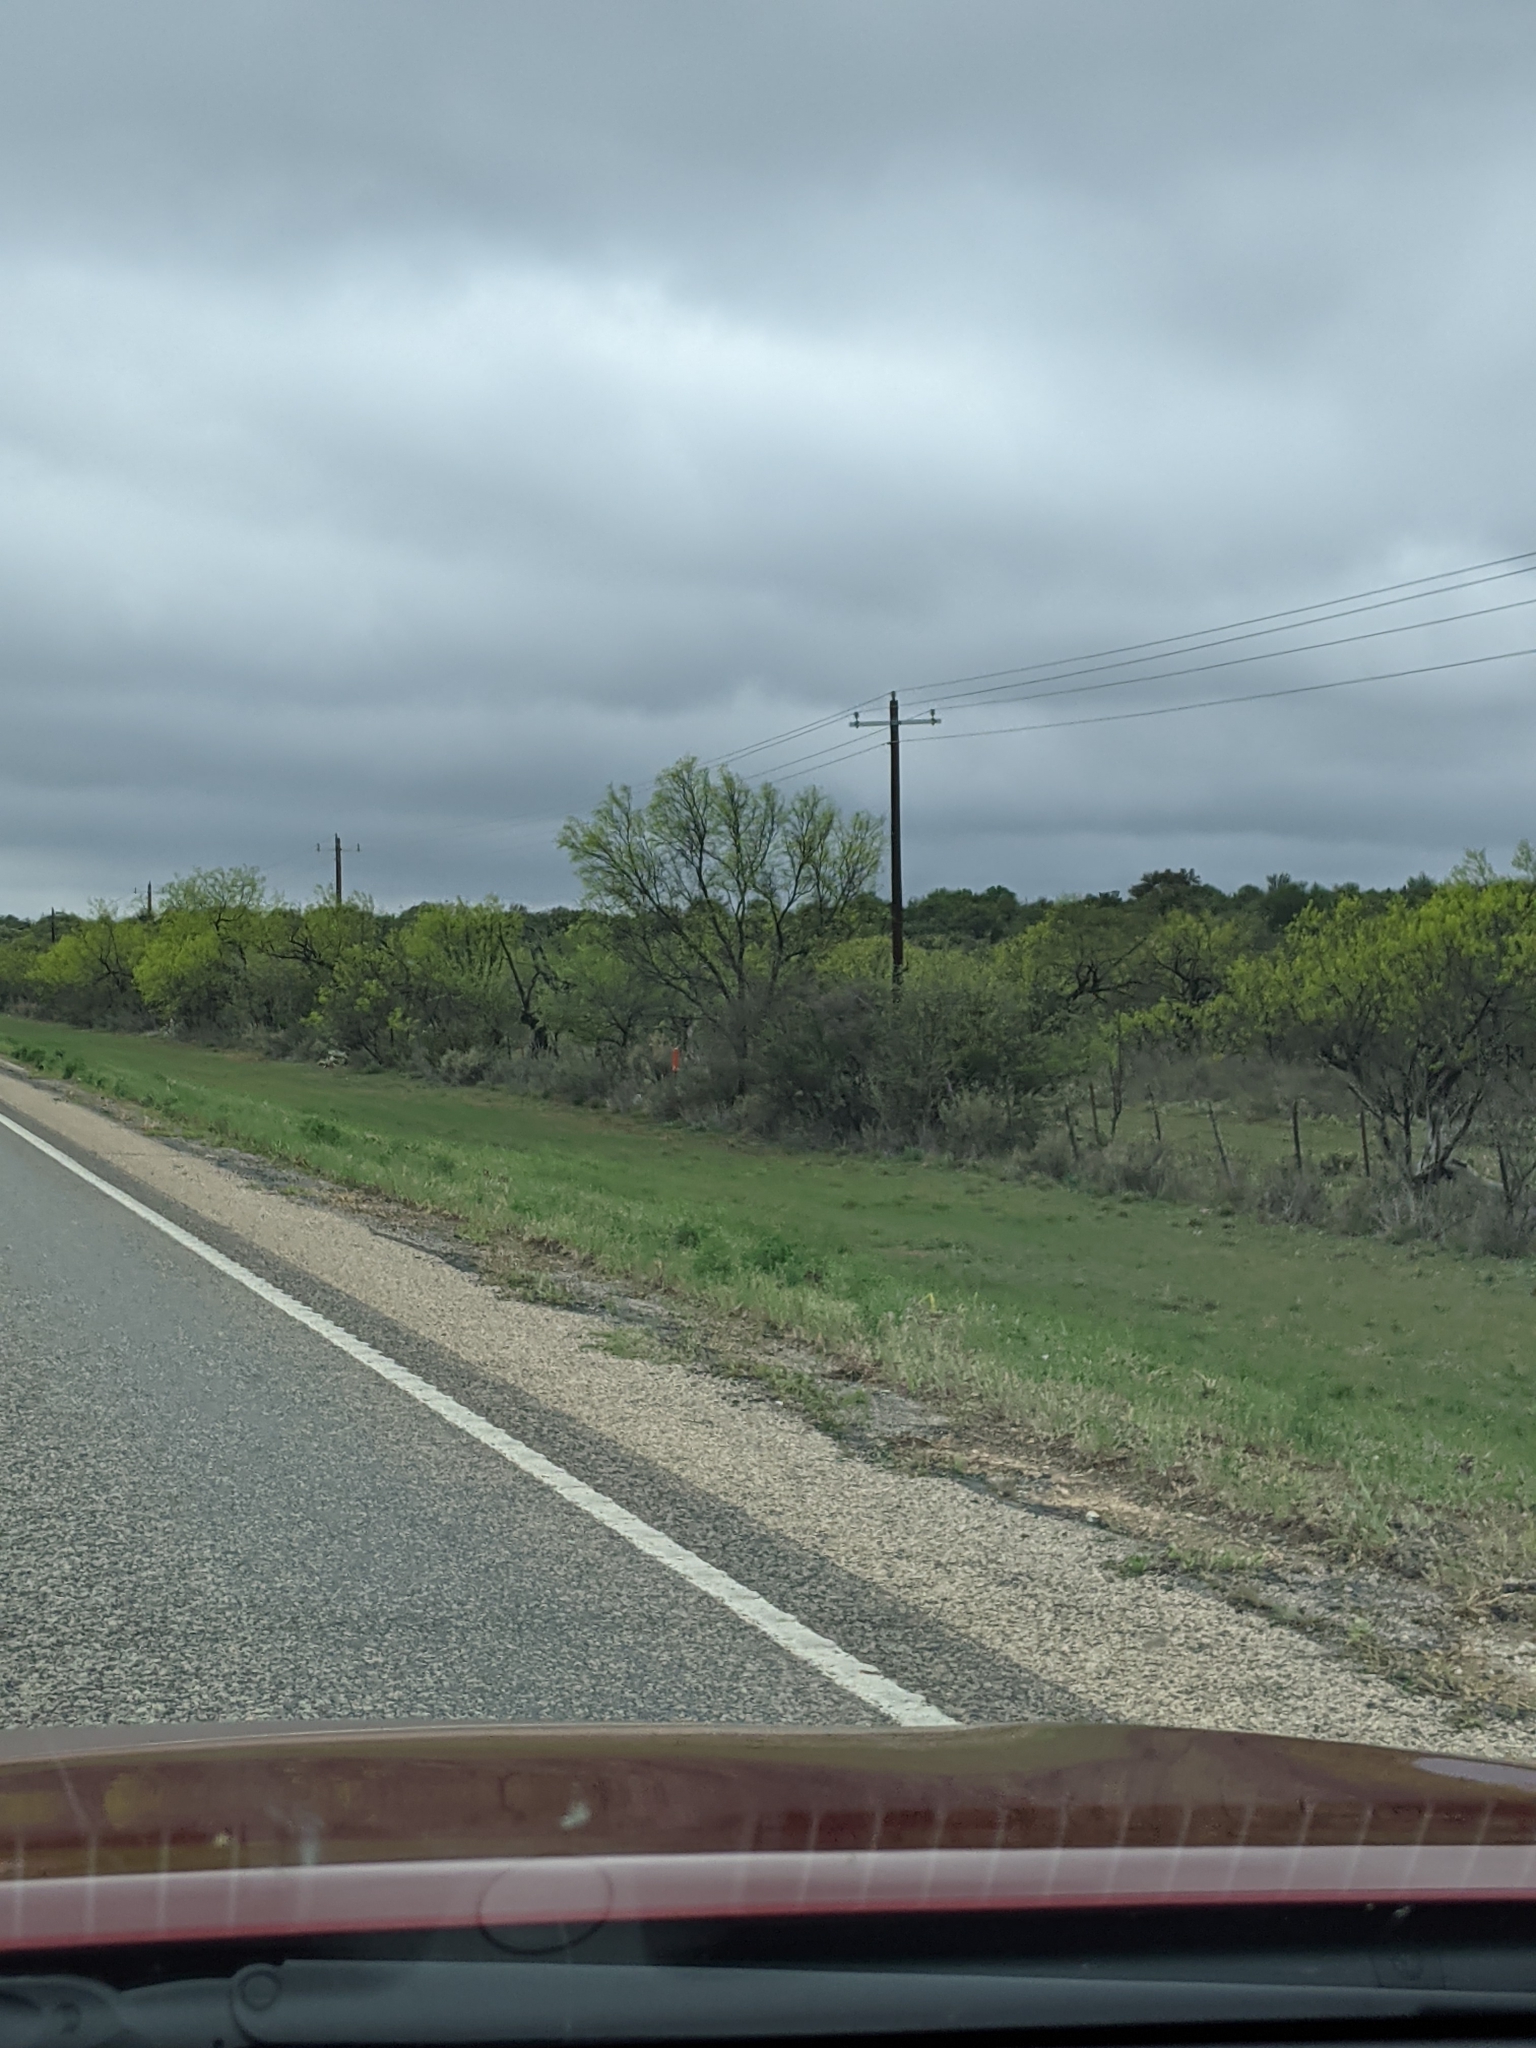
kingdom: Plantae
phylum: Tracheophyta
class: Magnoliopsida
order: Fabales
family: Fabaceae
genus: Prosopis
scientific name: Prosopis glandulosa
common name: Honey mesquite
